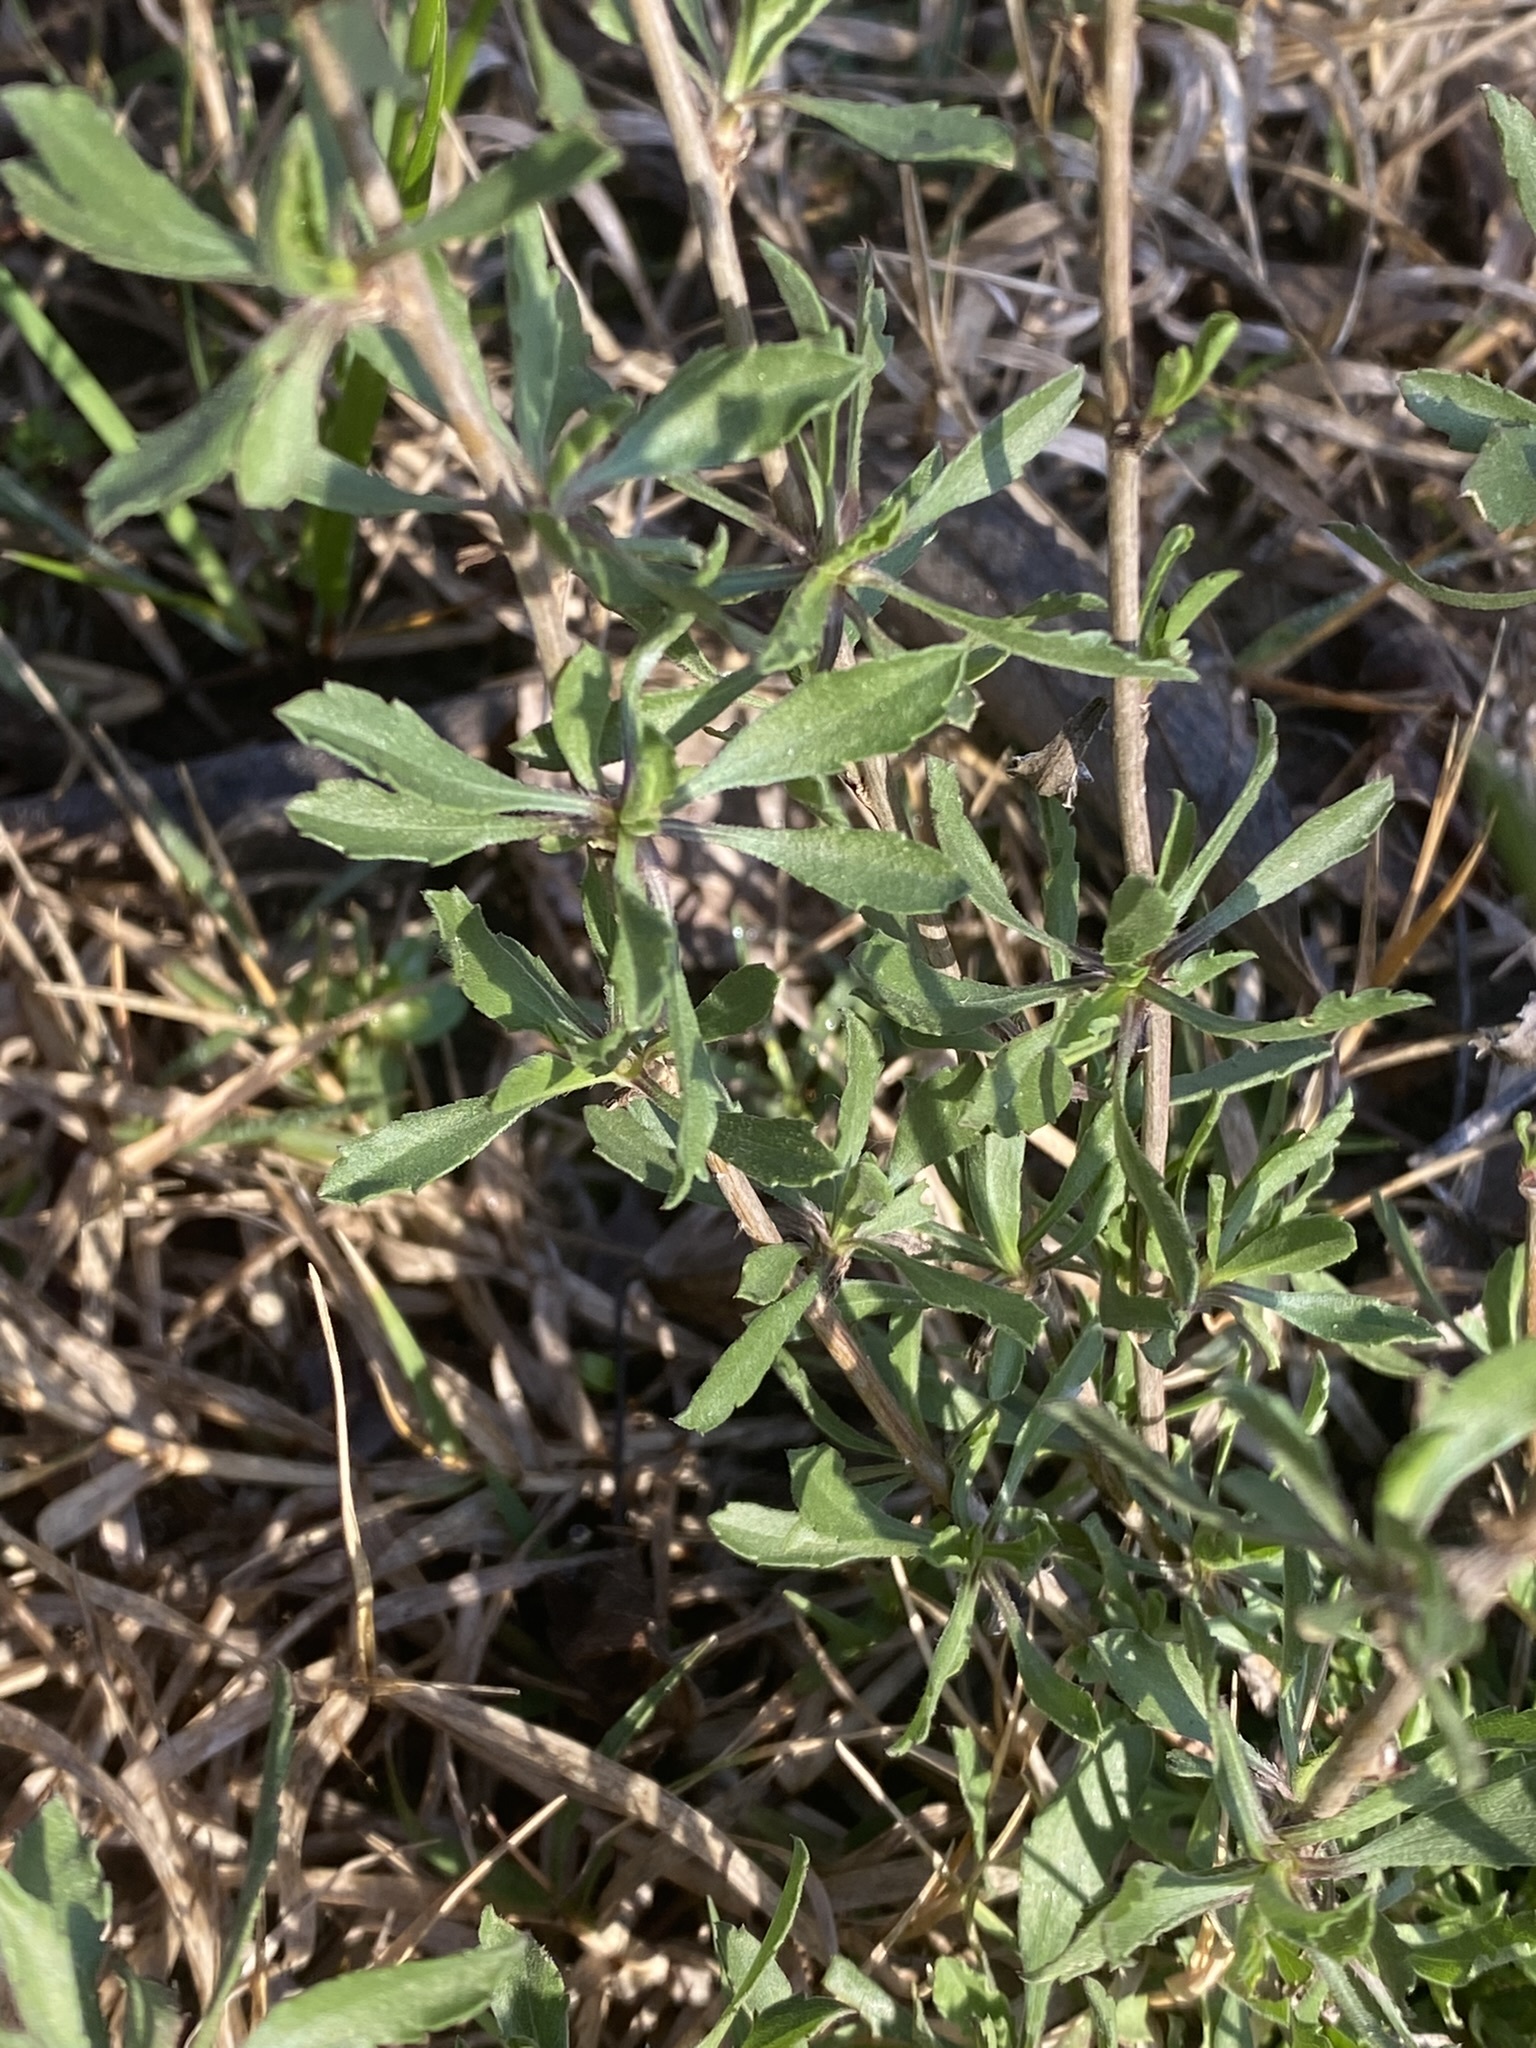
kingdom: Plantae
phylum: Tracheophyta
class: Magnoliopsida
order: Asterales
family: Asteraceae
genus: Grindelia
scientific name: Grindelia pulchella
